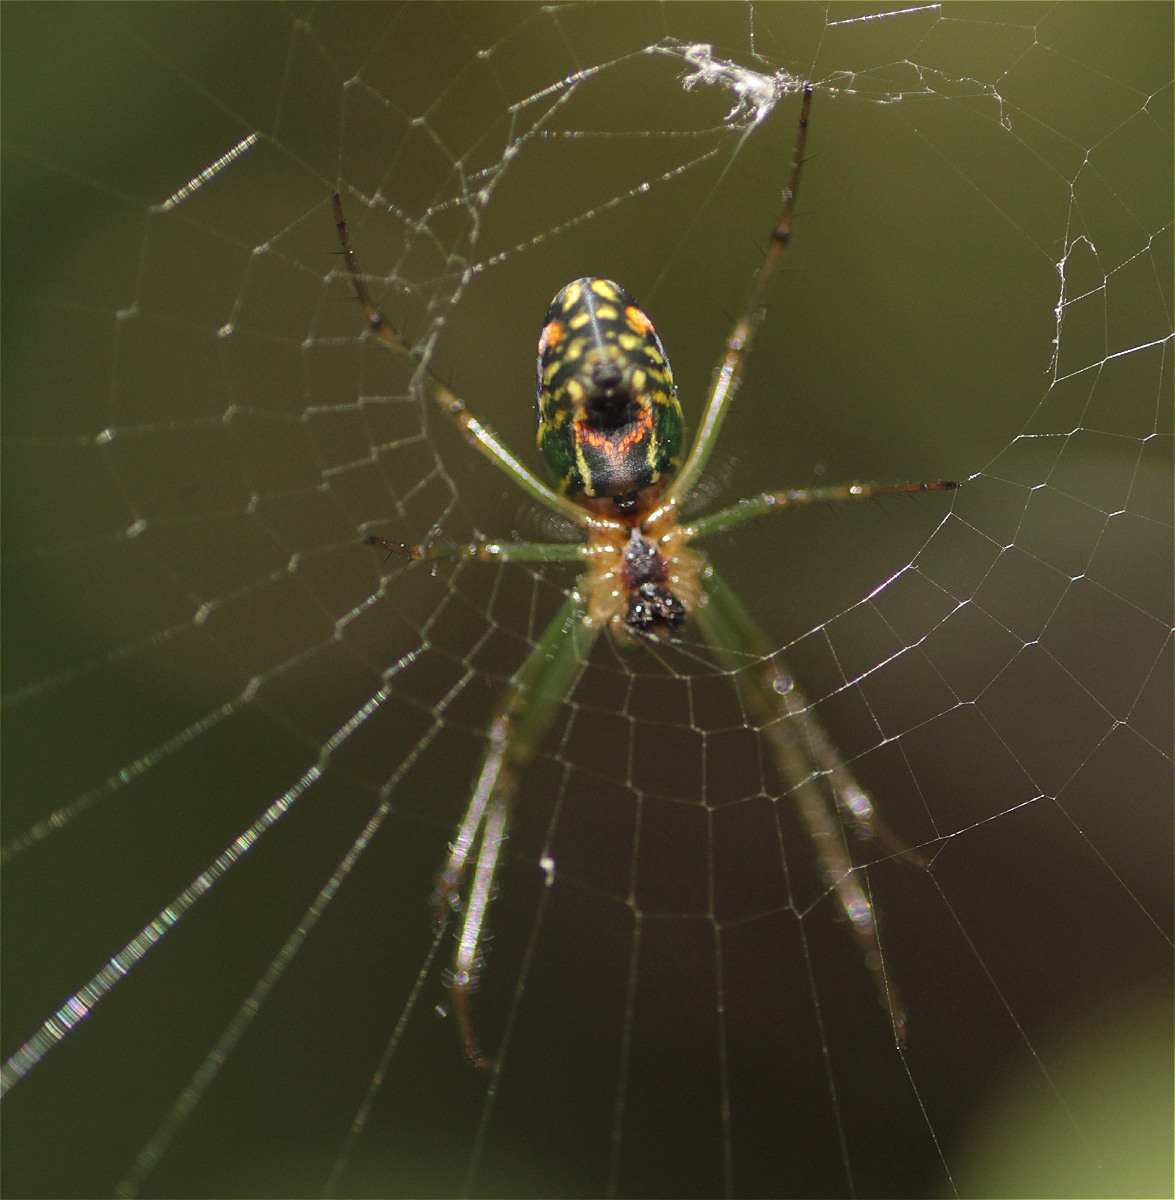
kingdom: Animalia
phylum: Arthropoda
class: Arachnida
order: Araneae
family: Tetragnathidae
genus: Leucauge
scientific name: Leucauge mariana
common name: Longjawed orb weavers
